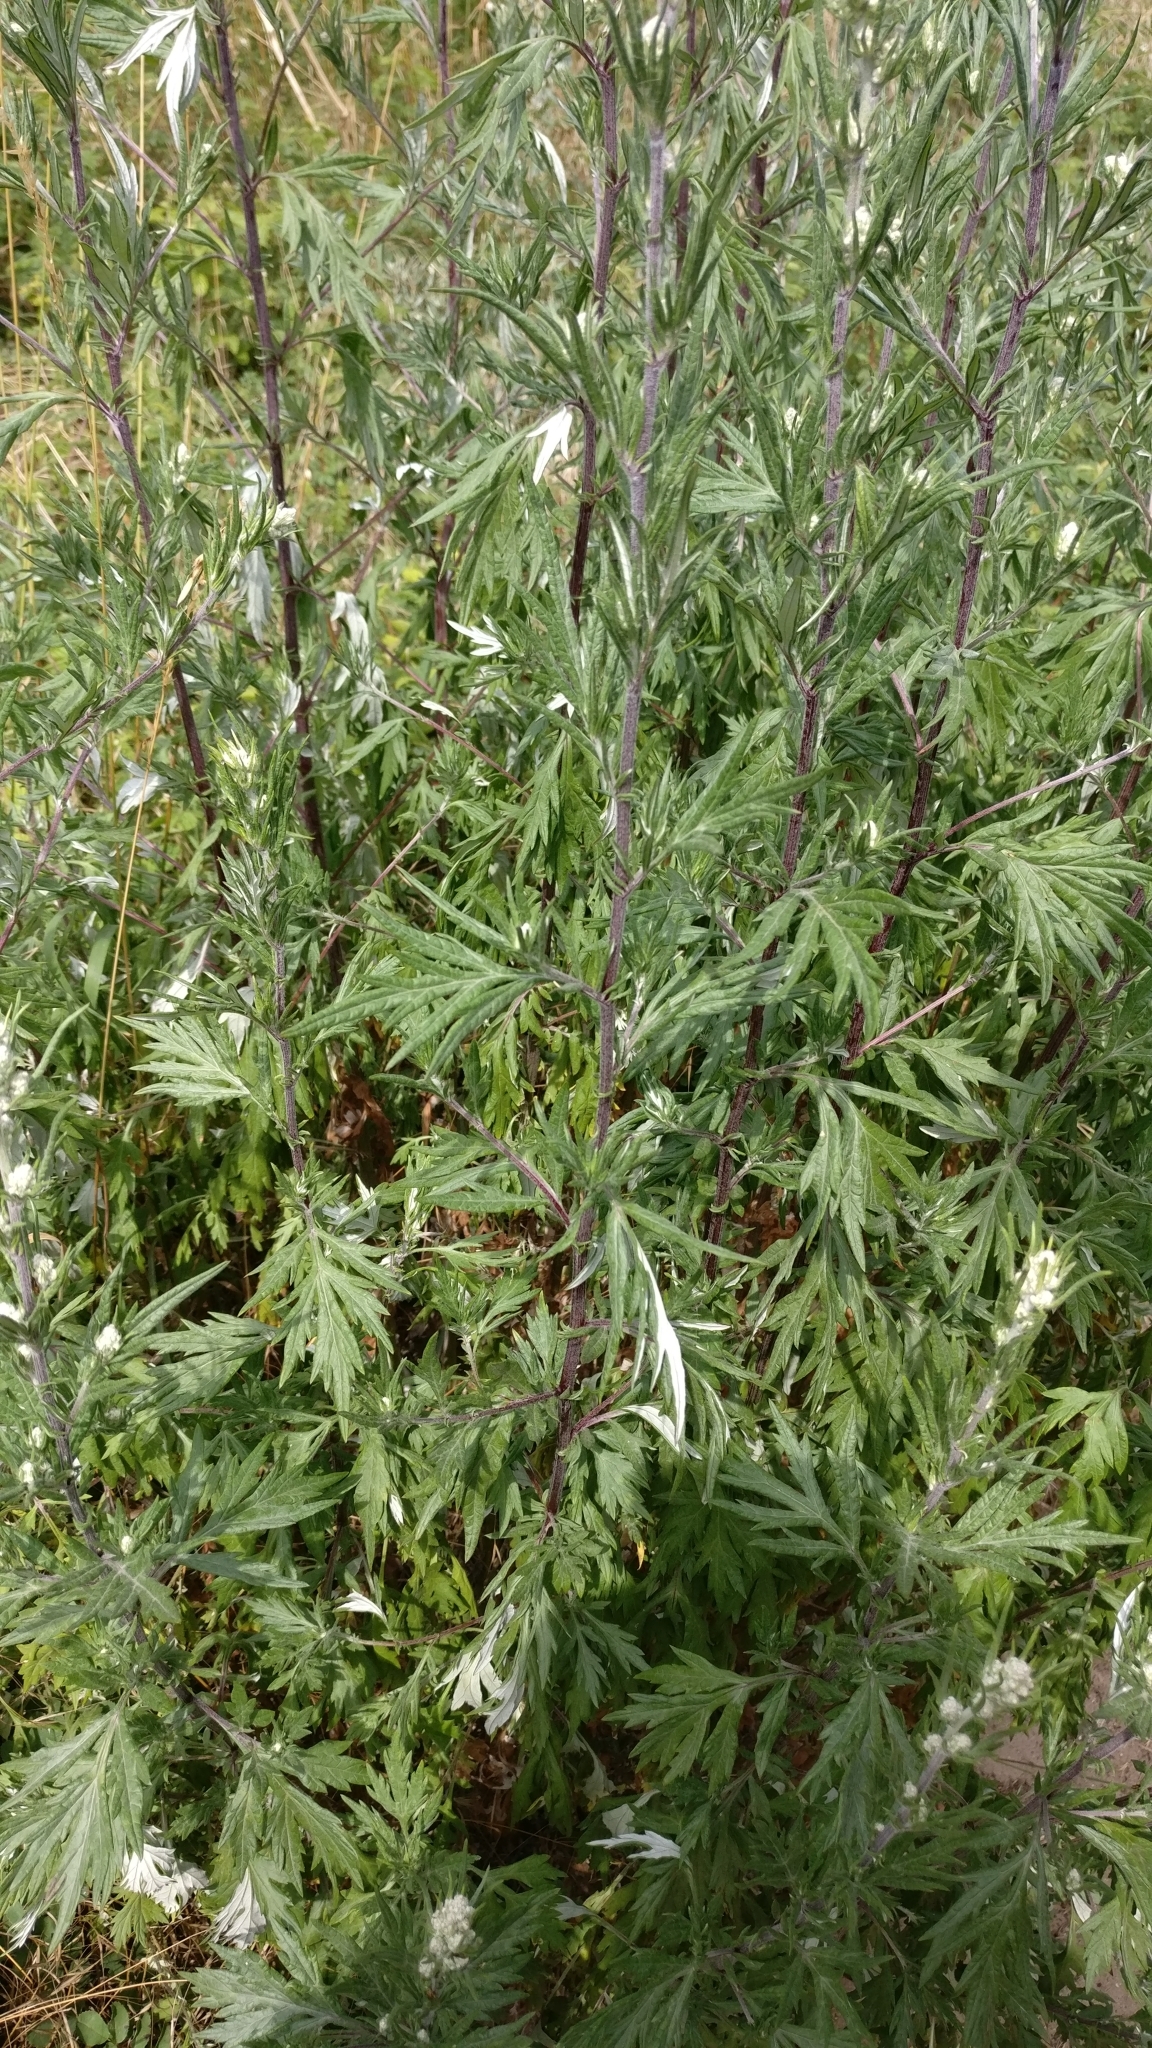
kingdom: Plantae
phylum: Tracheophyta
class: Magnoliopsida
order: Asterales
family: Asteraceae
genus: Artemisia
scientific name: Artemisia vulgaris
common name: Mugwort
